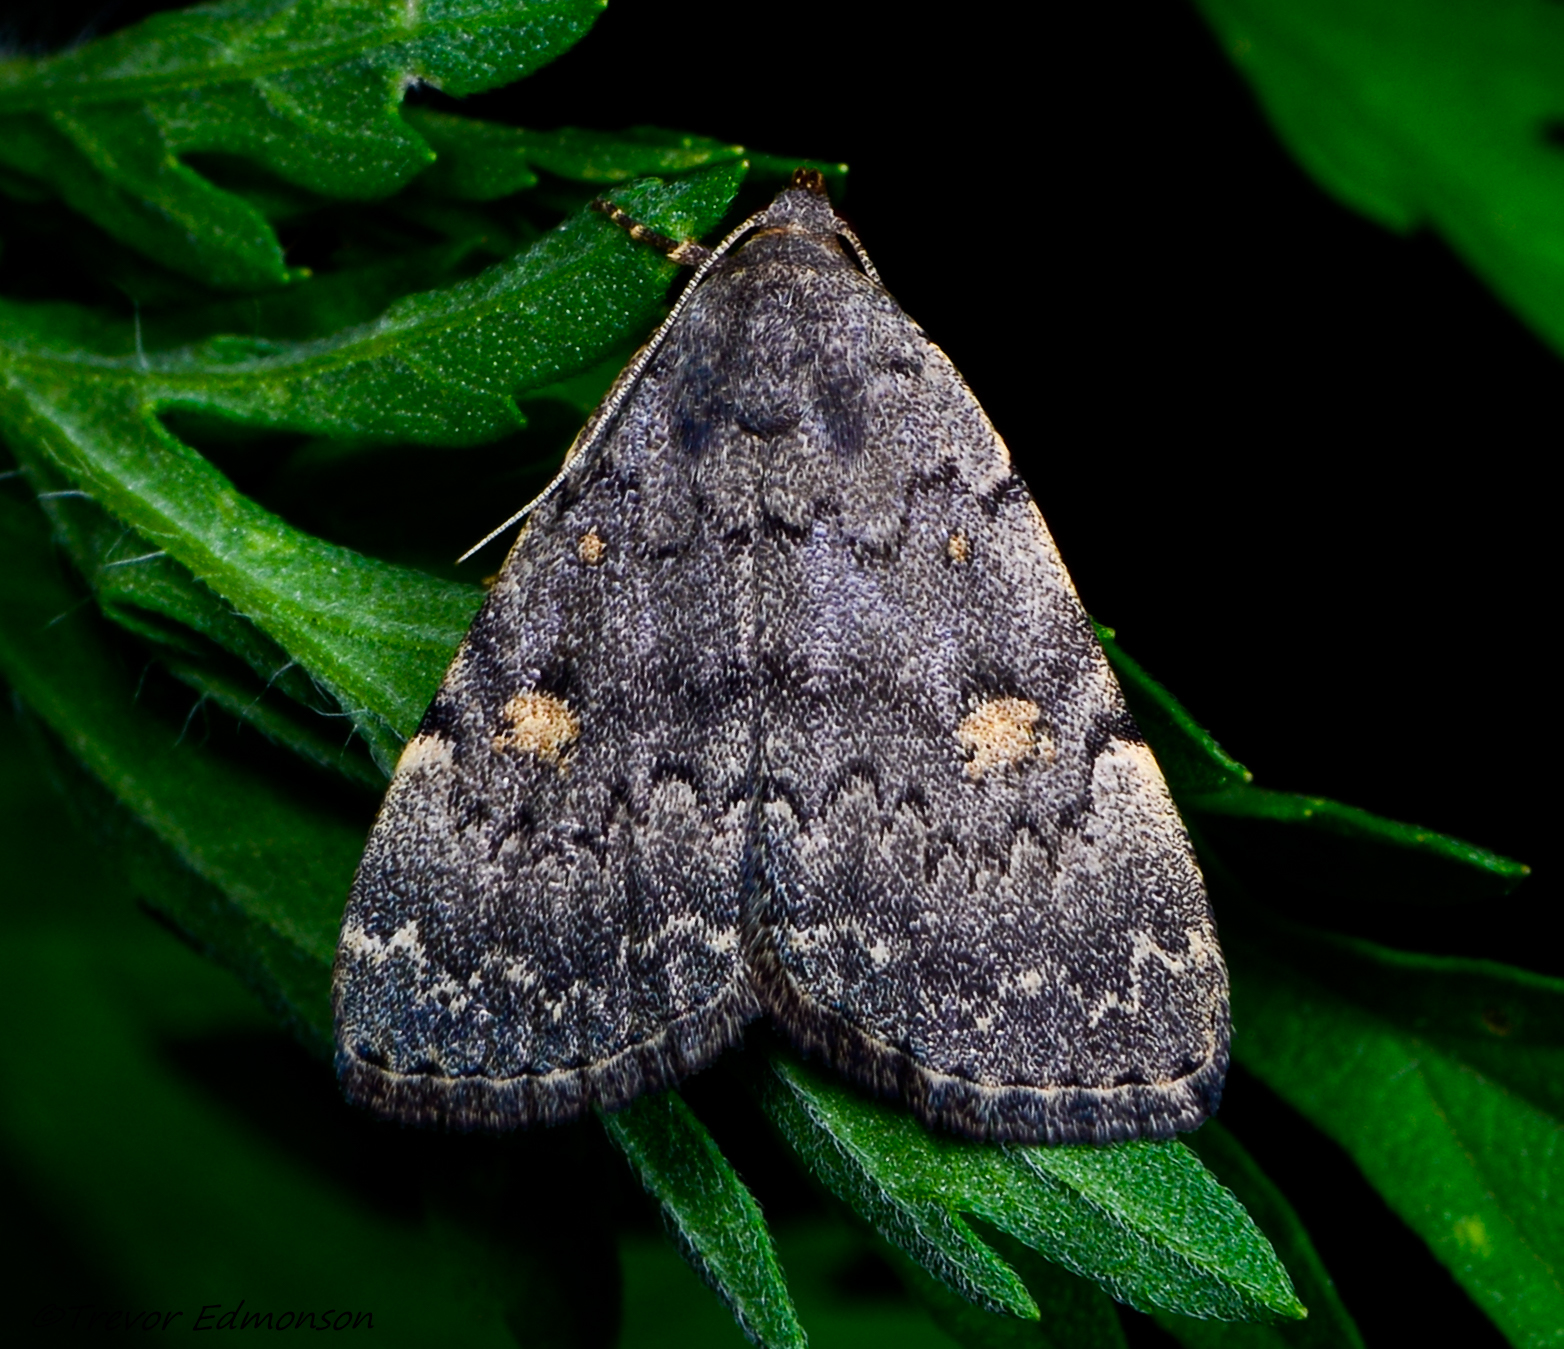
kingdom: Animalia
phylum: Arthropoda
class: Insecta
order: Lepidoptera
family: Erebidae
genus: Idia
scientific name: Idia aemula
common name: Common idia moth
